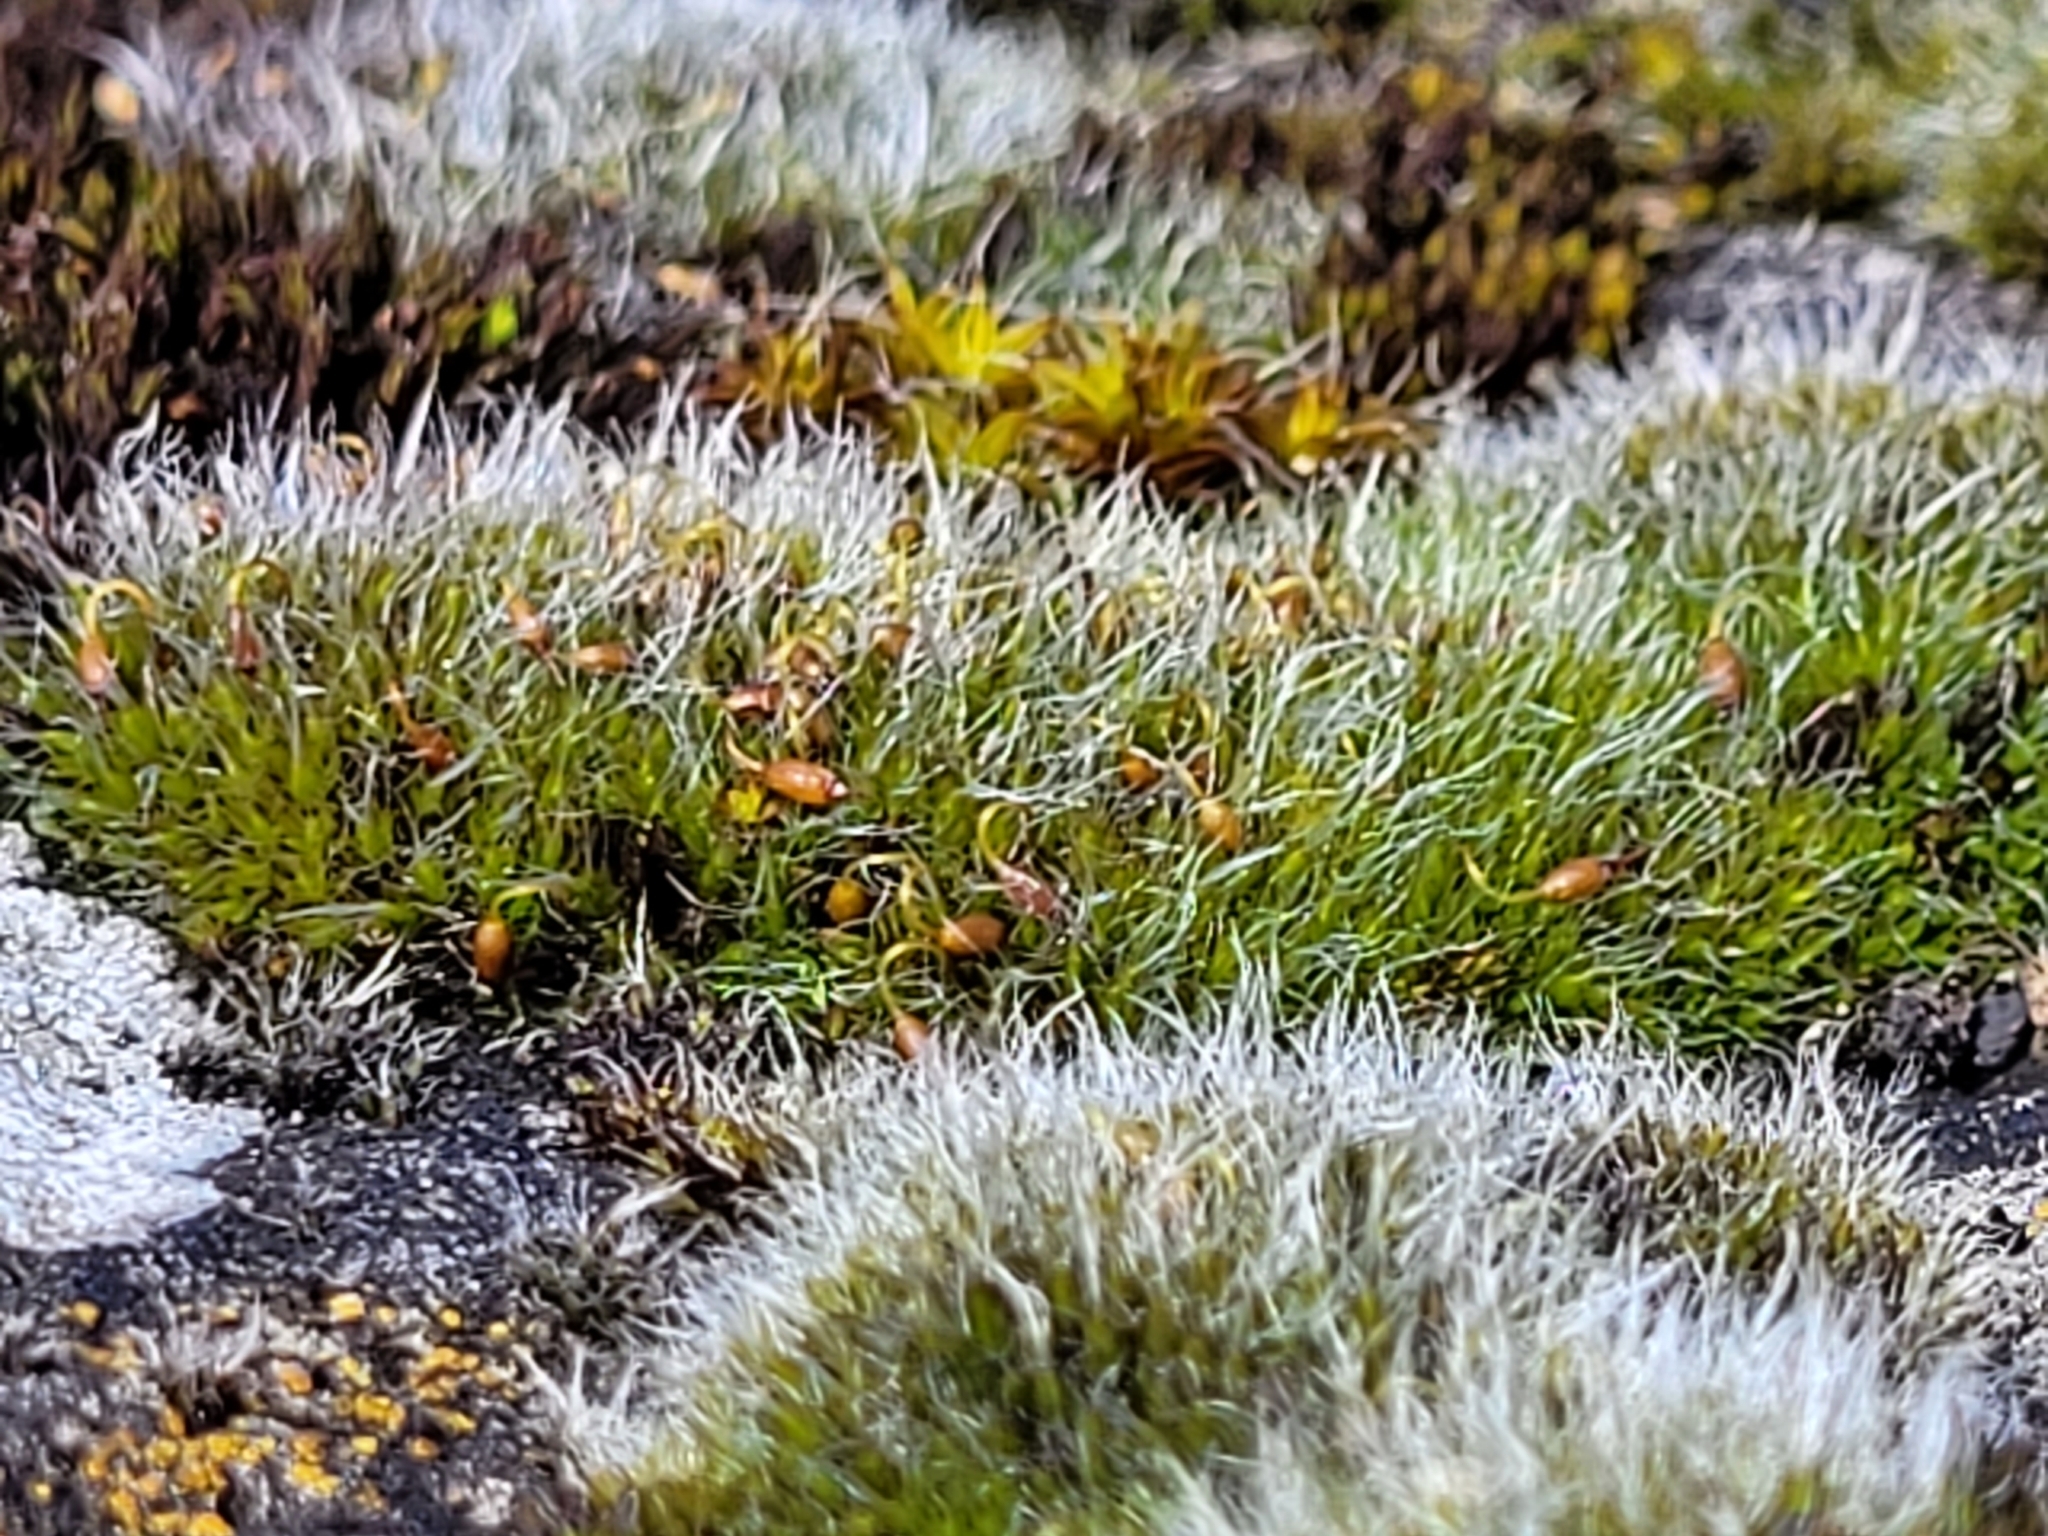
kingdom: Plantae
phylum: Bryophyta
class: Bryopsida
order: Grimmiales
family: Grimmiaceae
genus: Grimmia
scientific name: Grimmia pulvinata
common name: Grey-cushioned grimmia
